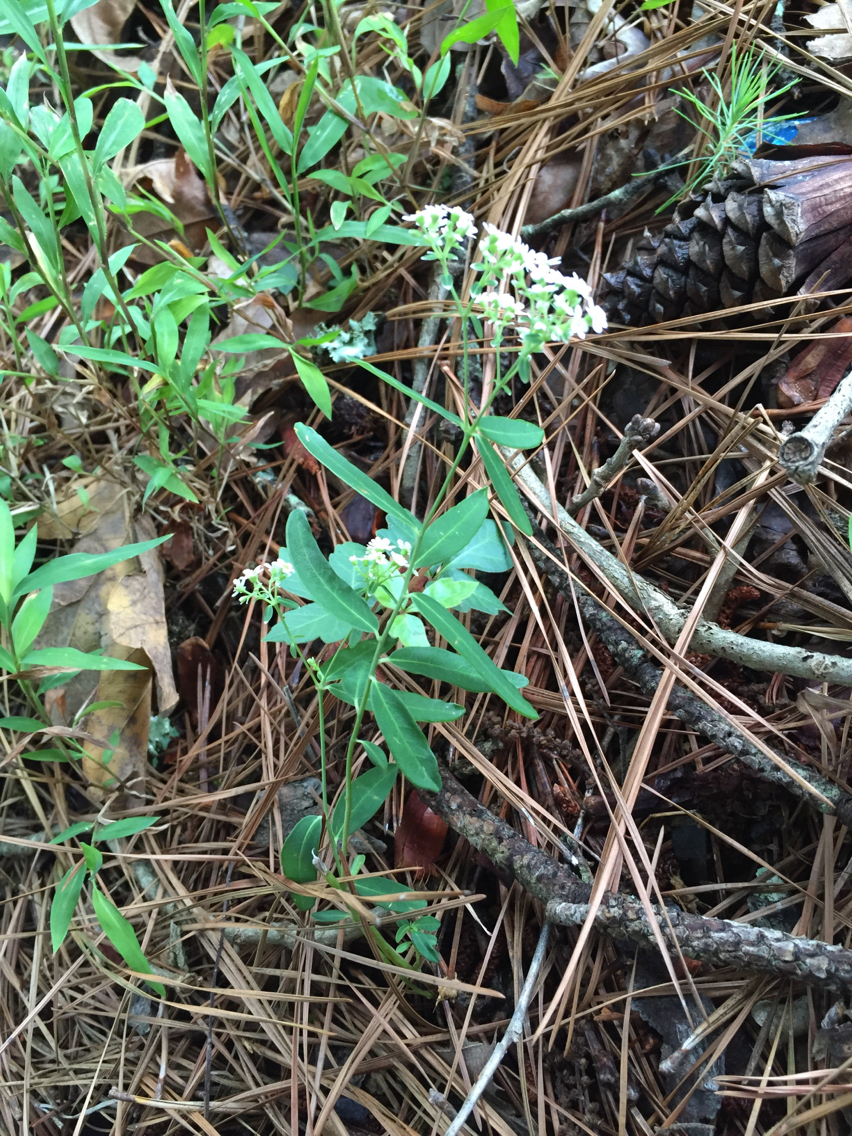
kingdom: Plantae
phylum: Tracheophyta
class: Magnoliopsida
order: Malpighiales
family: Euphorbiaceae
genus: Euphorbia
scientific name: Euphorbia corollata
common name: Flowering spurge
